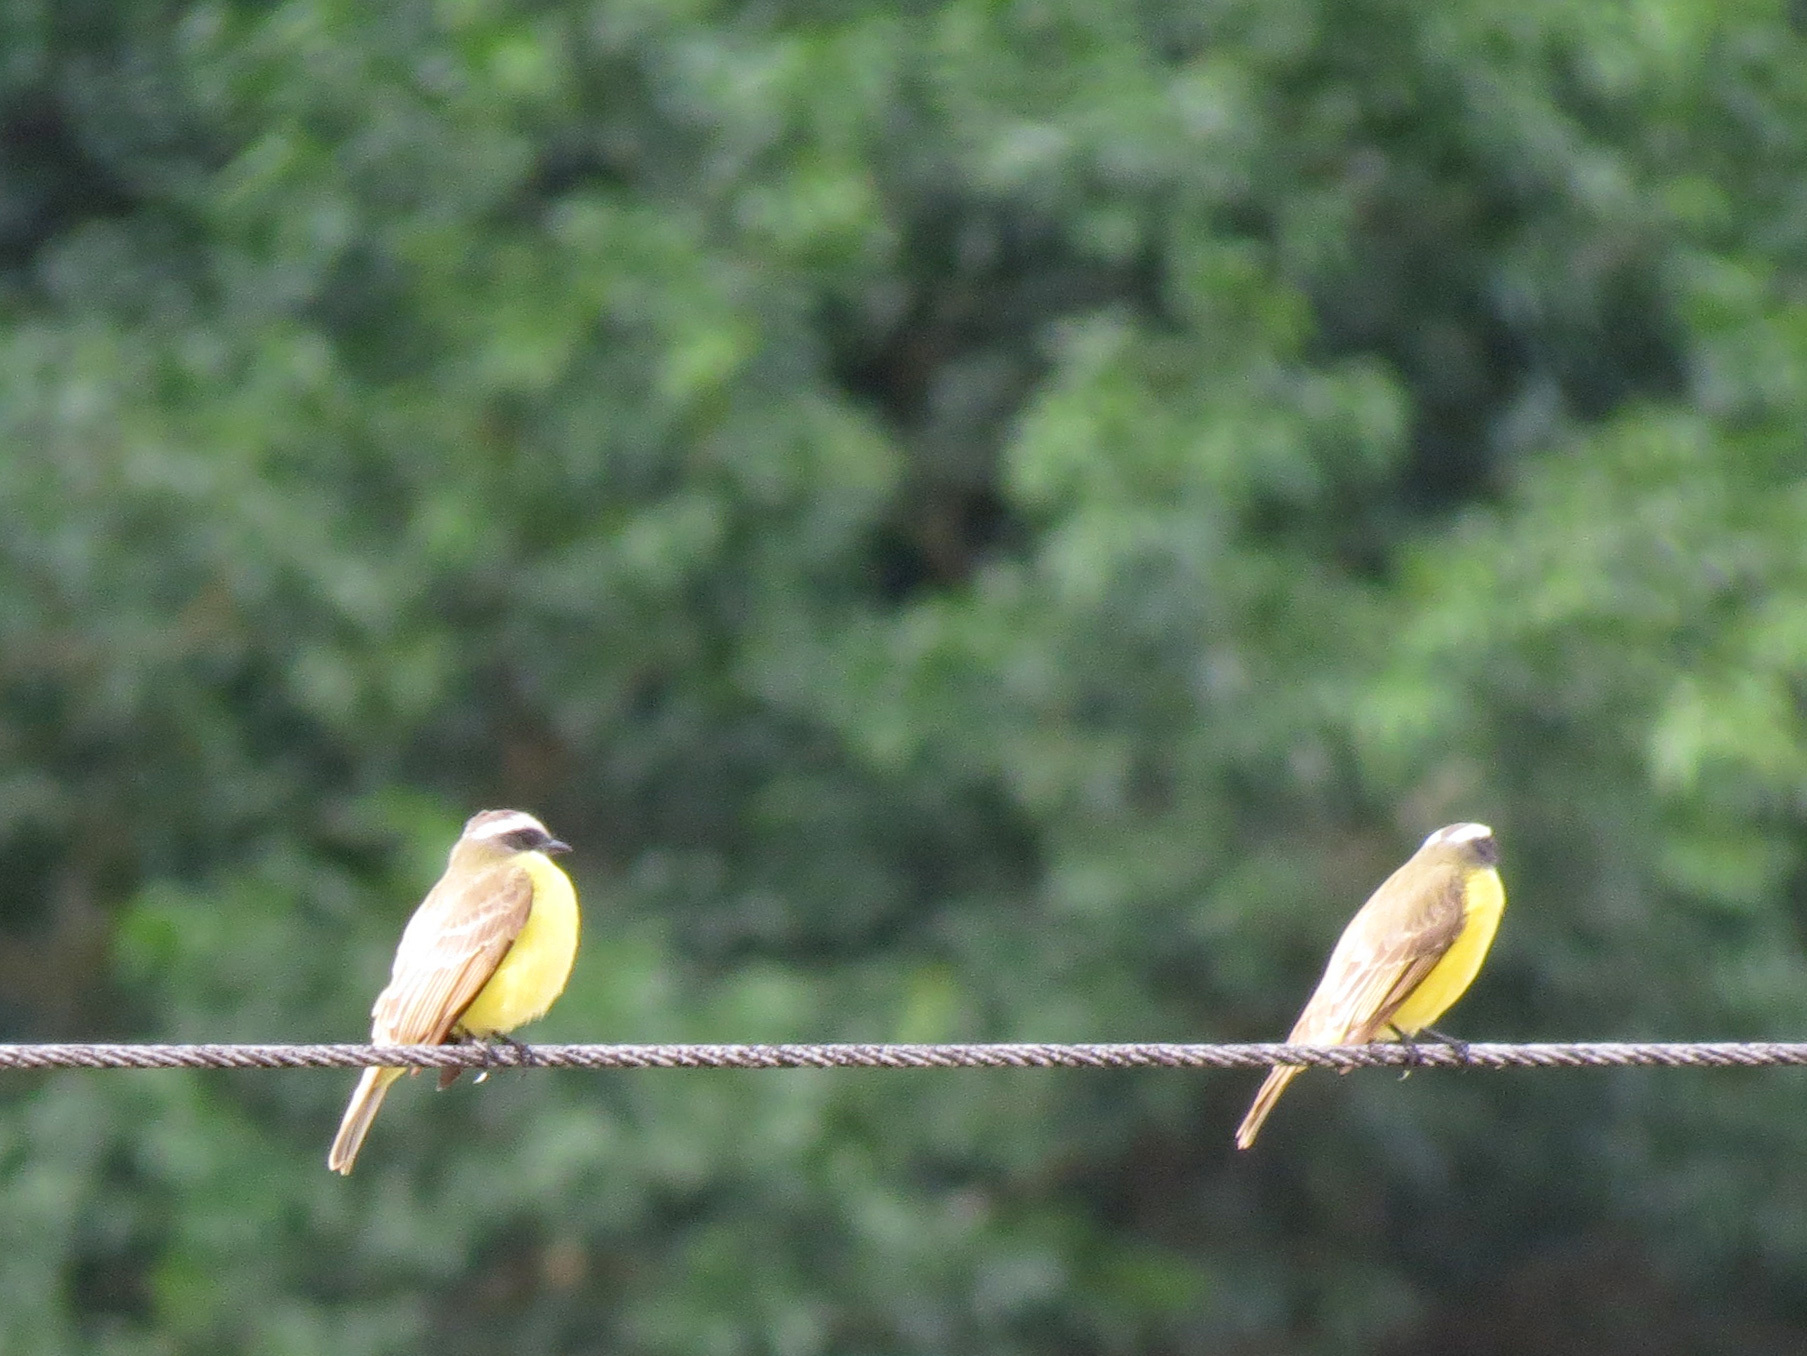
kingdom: Animalia
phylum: Chordata
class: Aves
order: Passeriformes
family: Tyrannidae
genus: Myiozetetes
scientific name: Myiozetetes similis
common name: Social flycatcher
